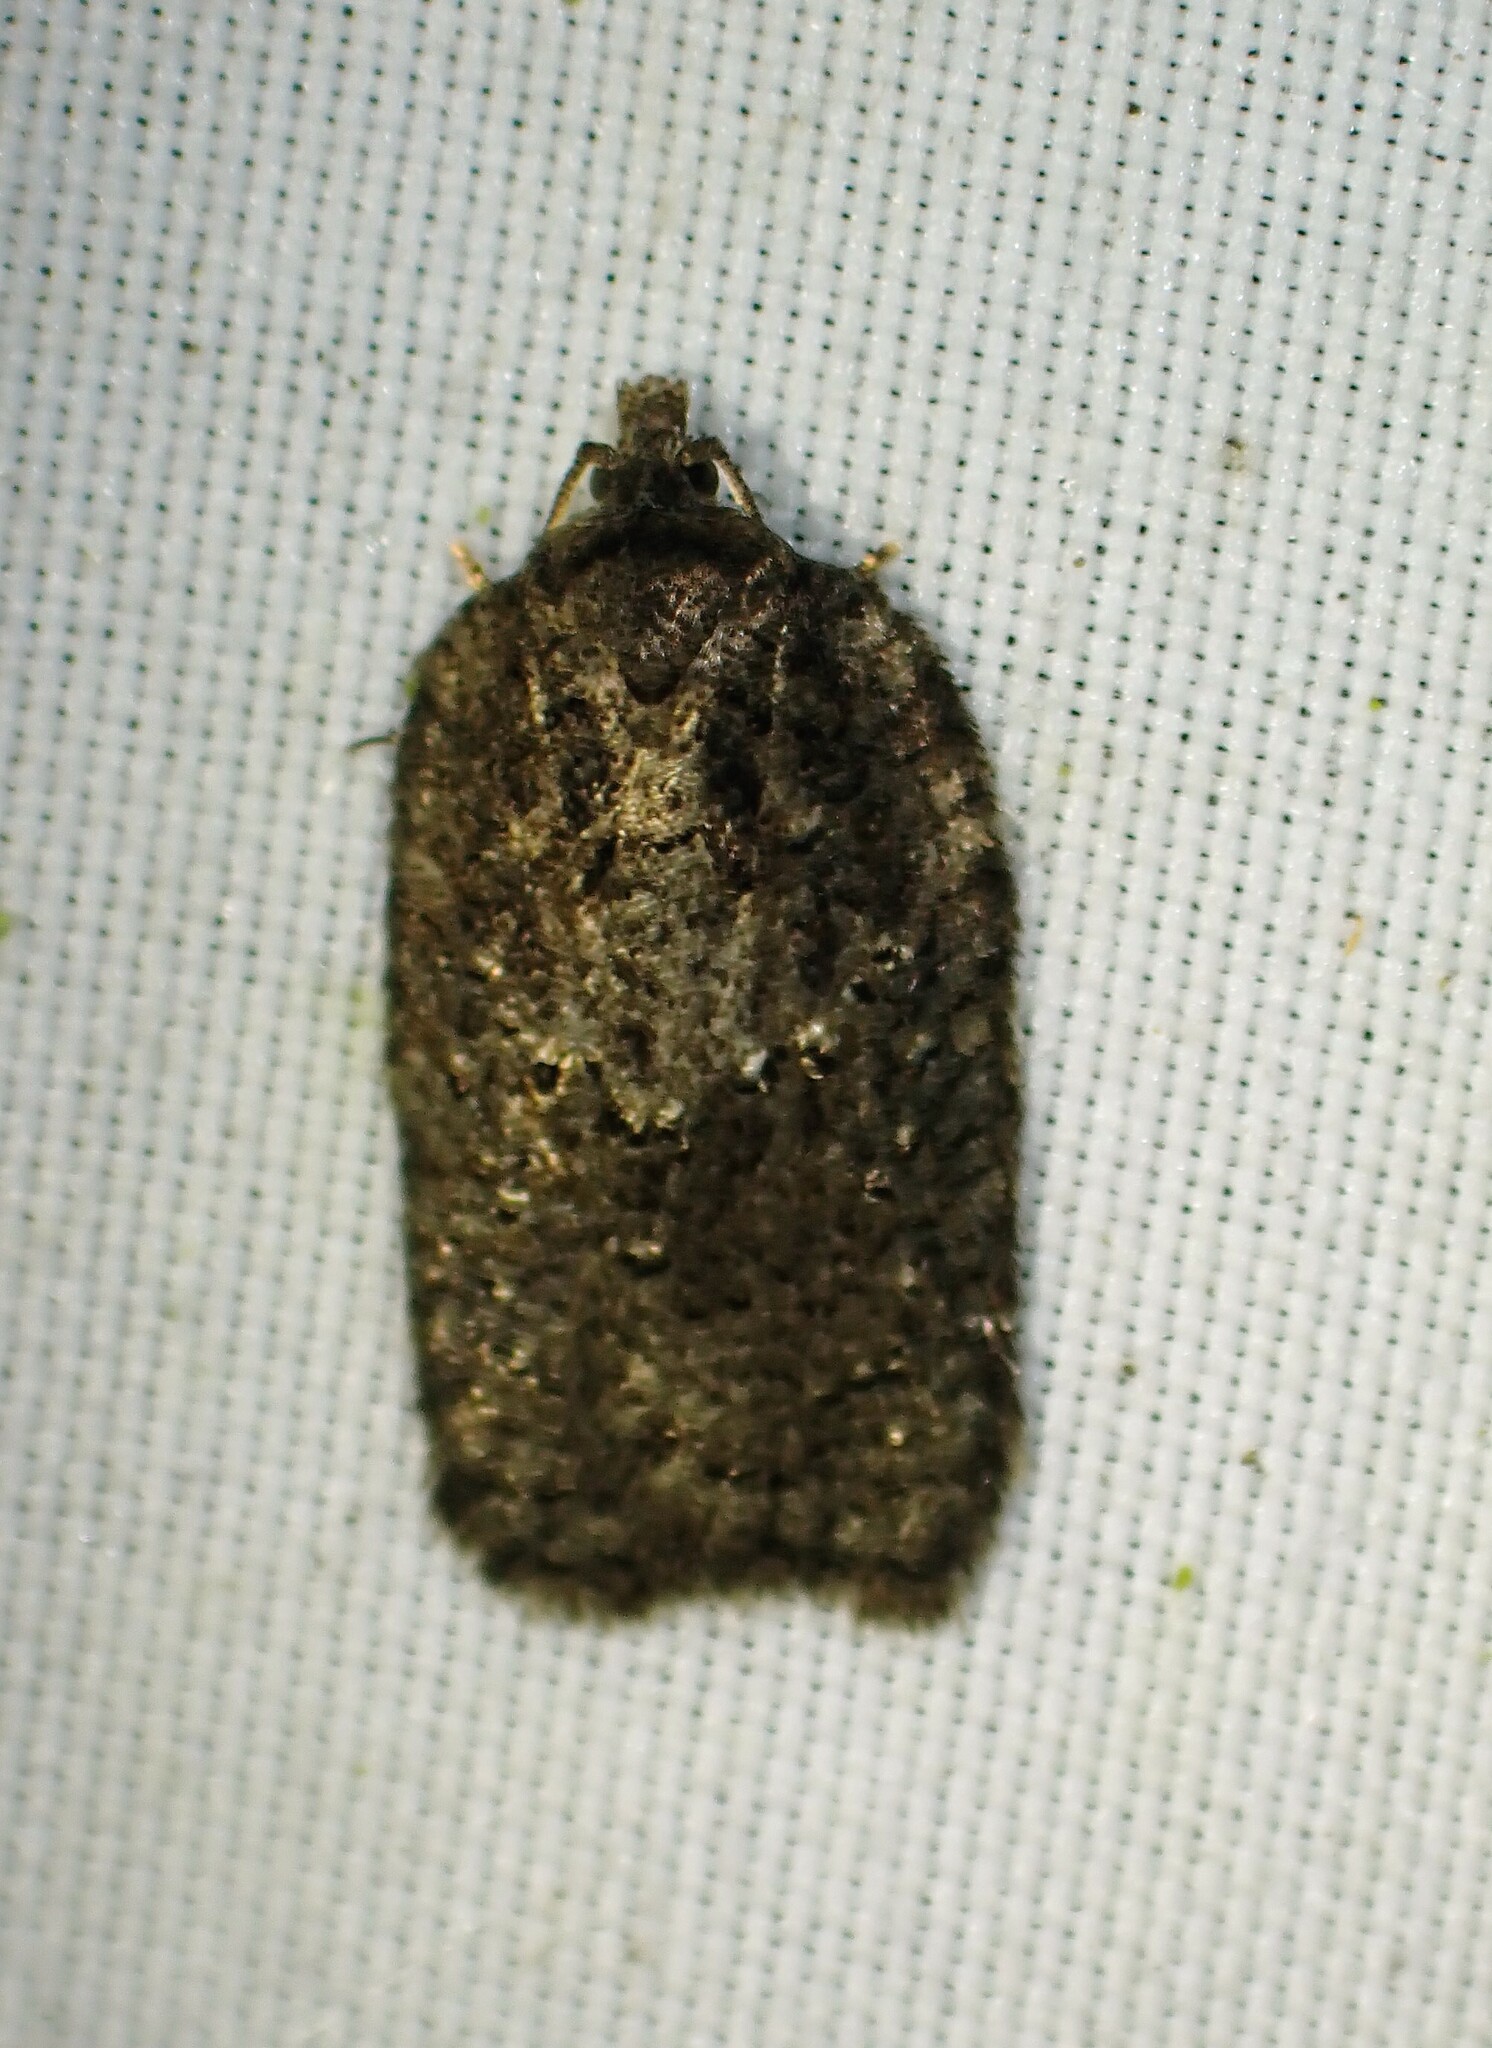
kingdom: Animalia
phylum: Arthropoda
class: Insecta
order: Lepidoptera
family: Tortricidae
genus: Acleris
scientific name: Acleris chalybeana
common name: Lesser maple leafroller
